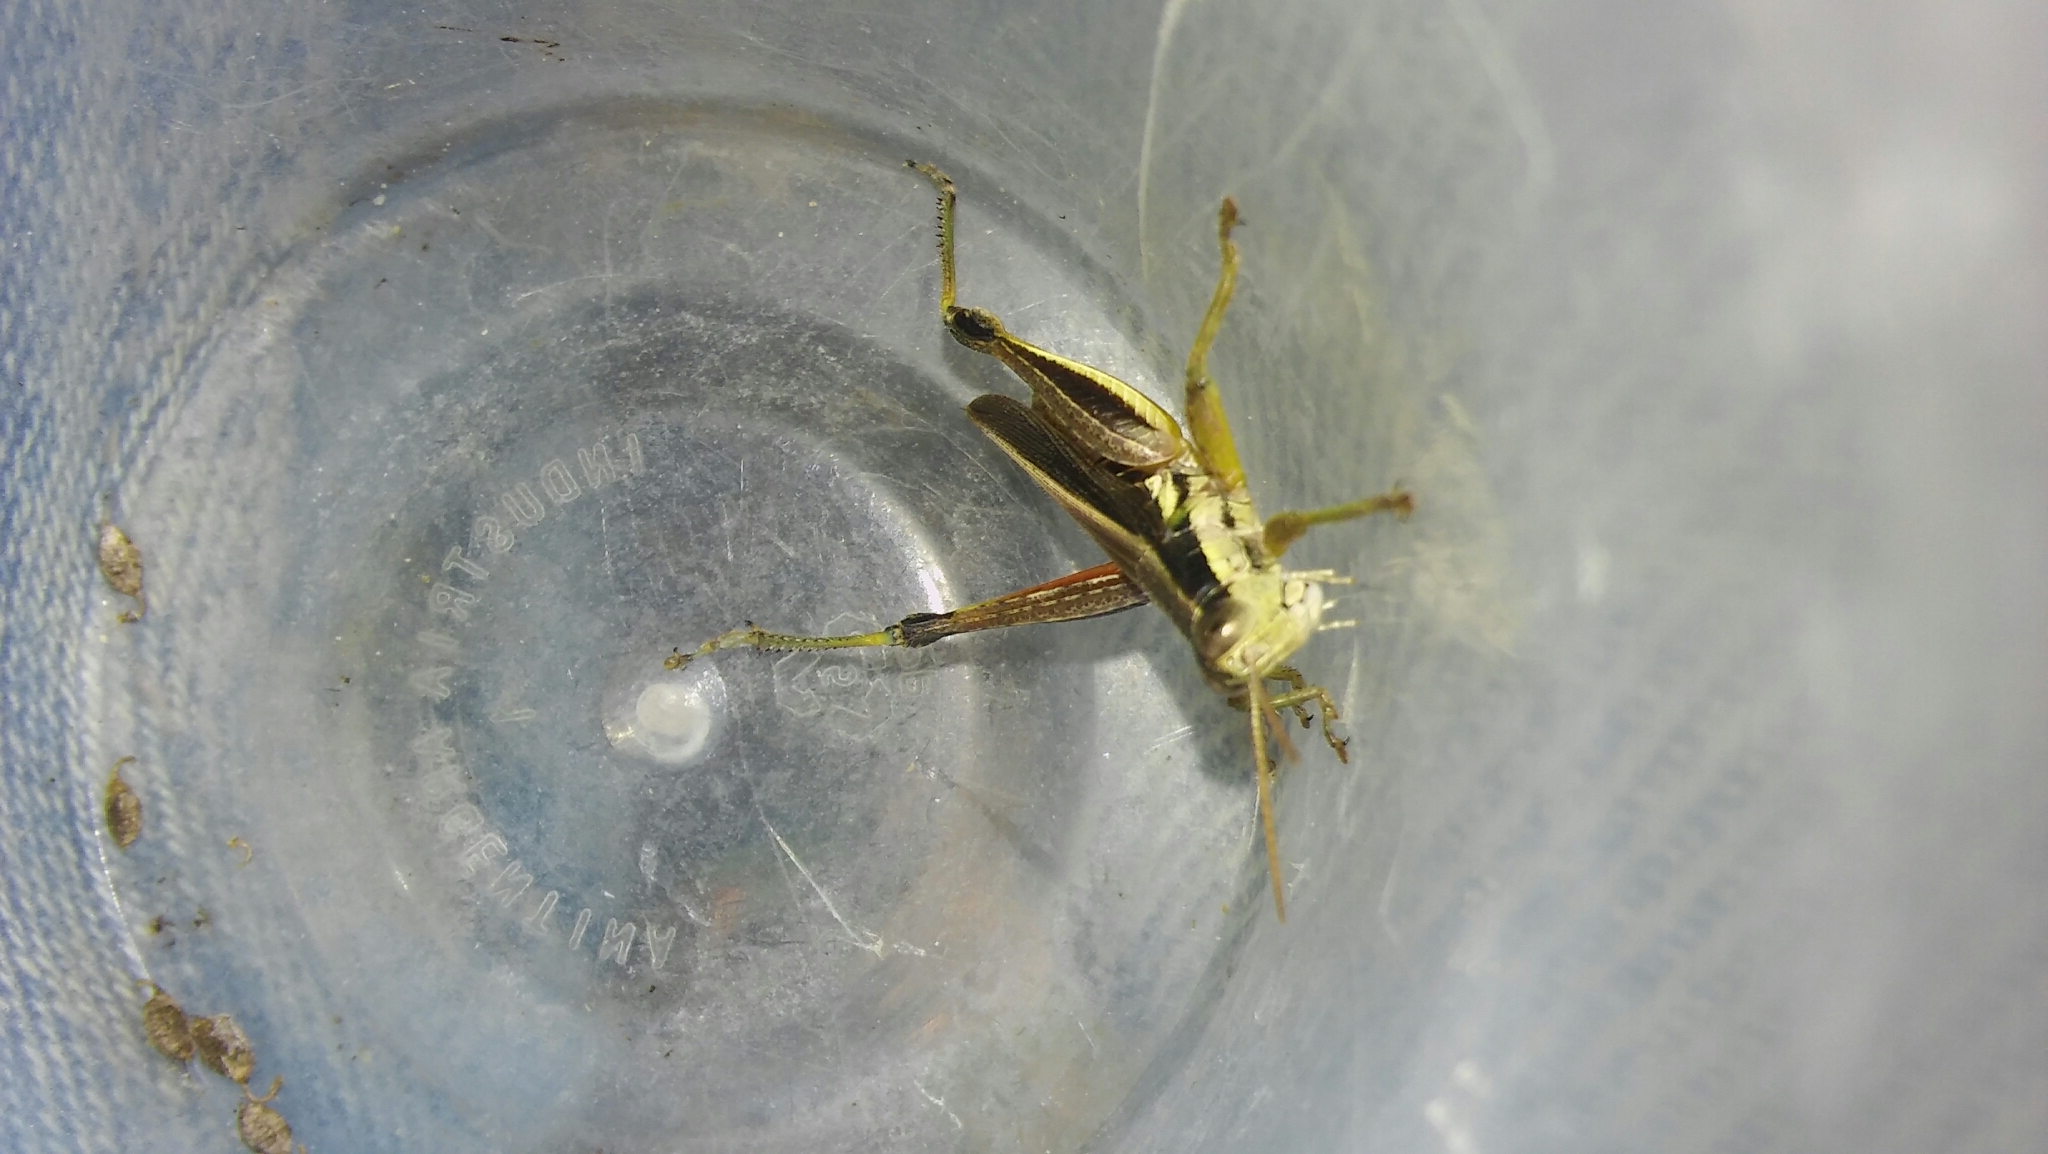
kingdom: Animalia
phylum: Arthropoda
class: Insecta
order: Orthoptera
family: Acrididae
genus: Dichroplus
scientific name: Dichroplus elongatus
